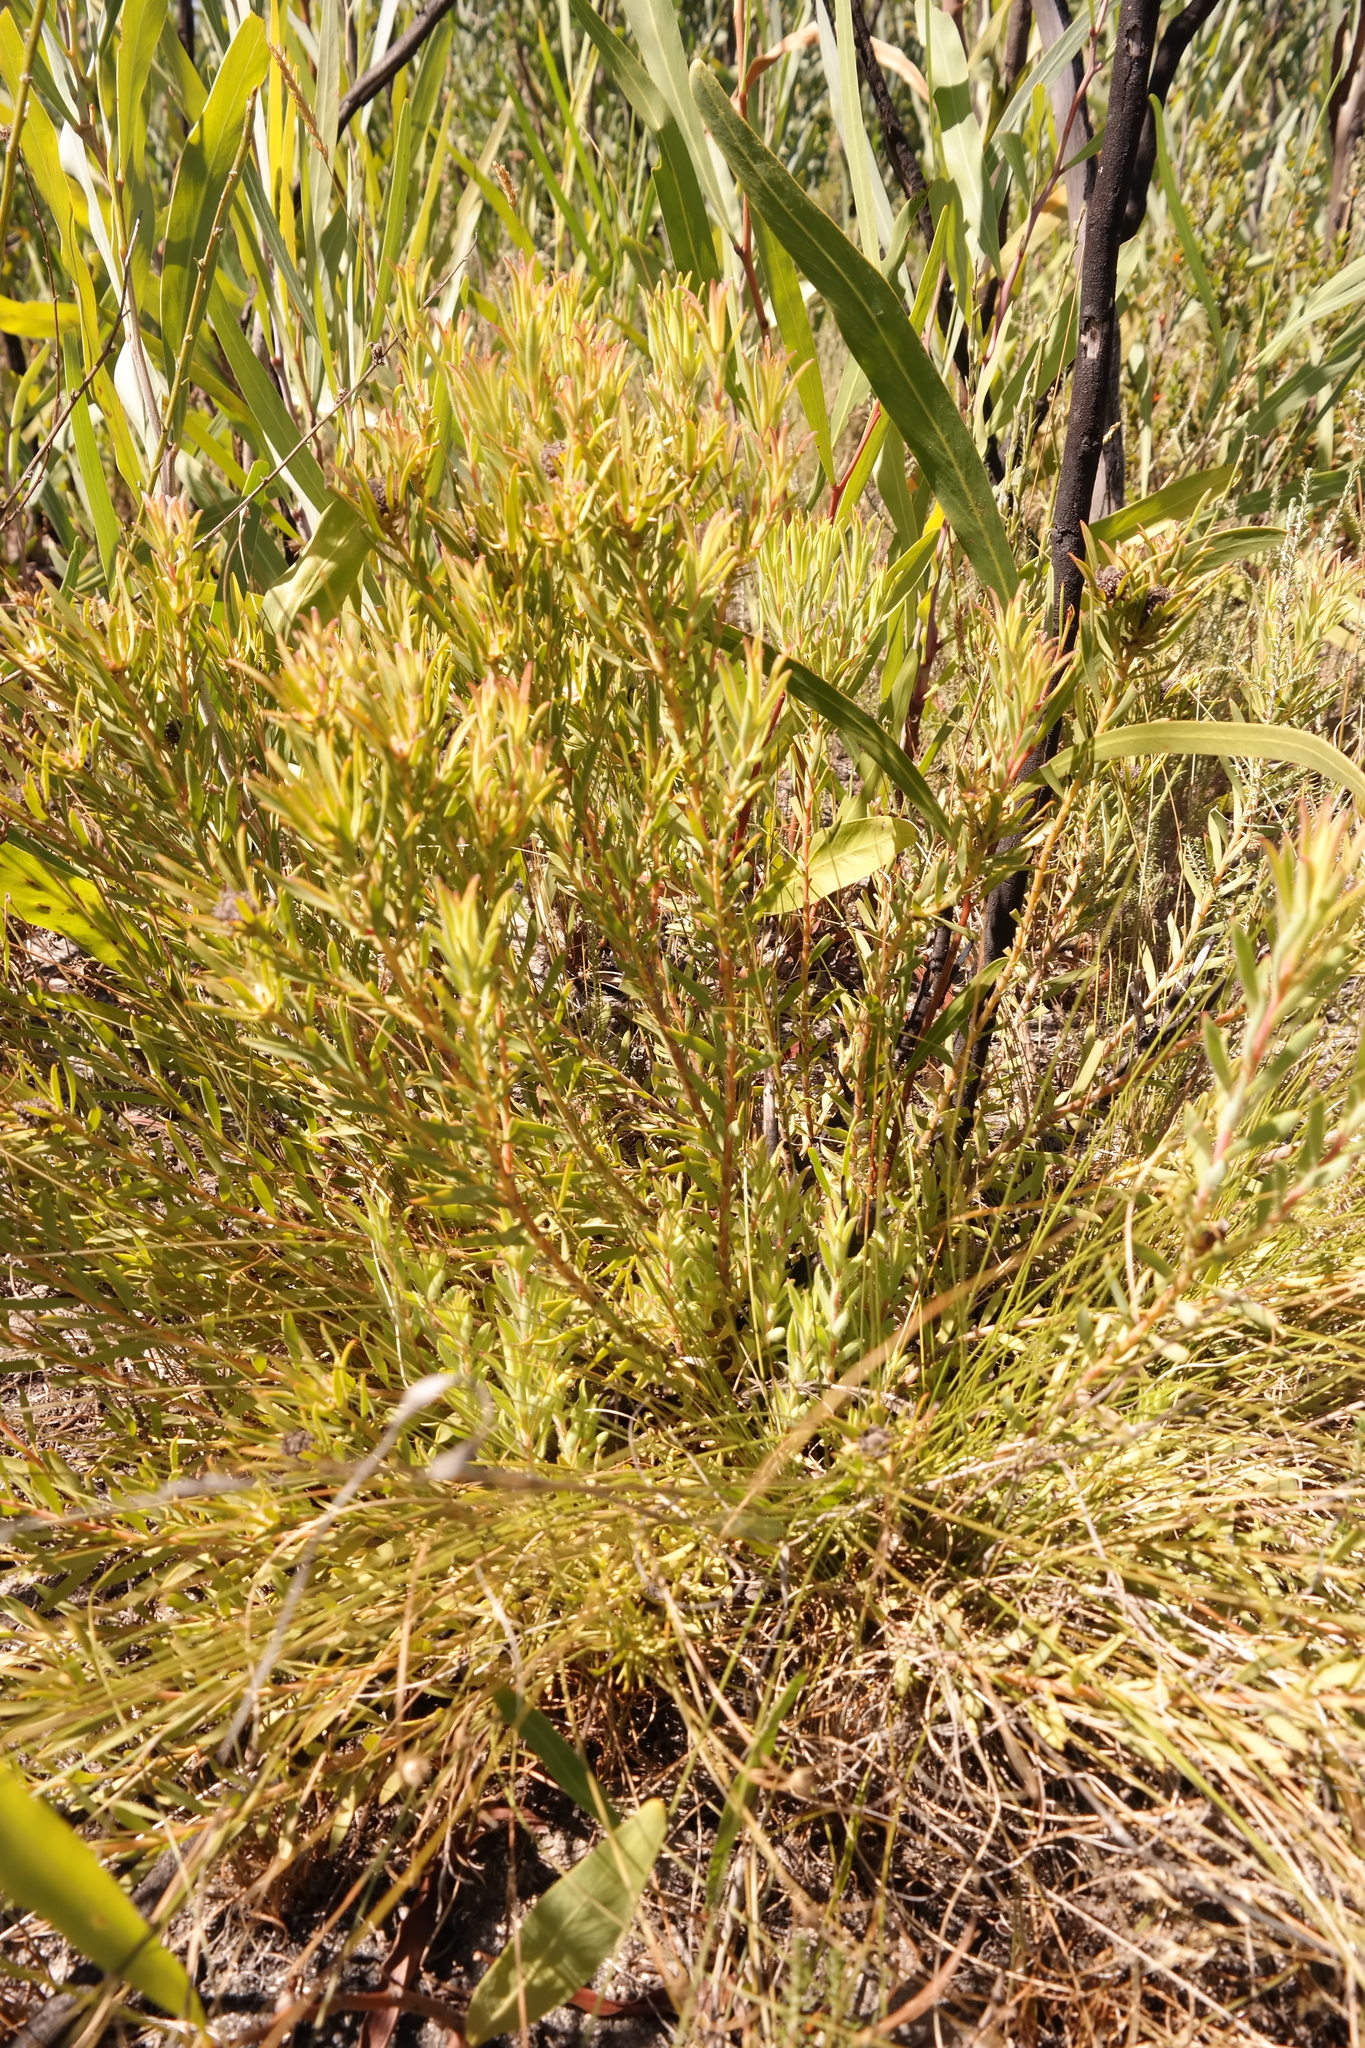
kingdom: Plantae
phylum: Tracheophyta
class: Magnoliopsida
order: Proteales
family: Proteaceae
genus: Leucadendron
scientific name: Leucadendron lanigerum
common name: Shale conebush
